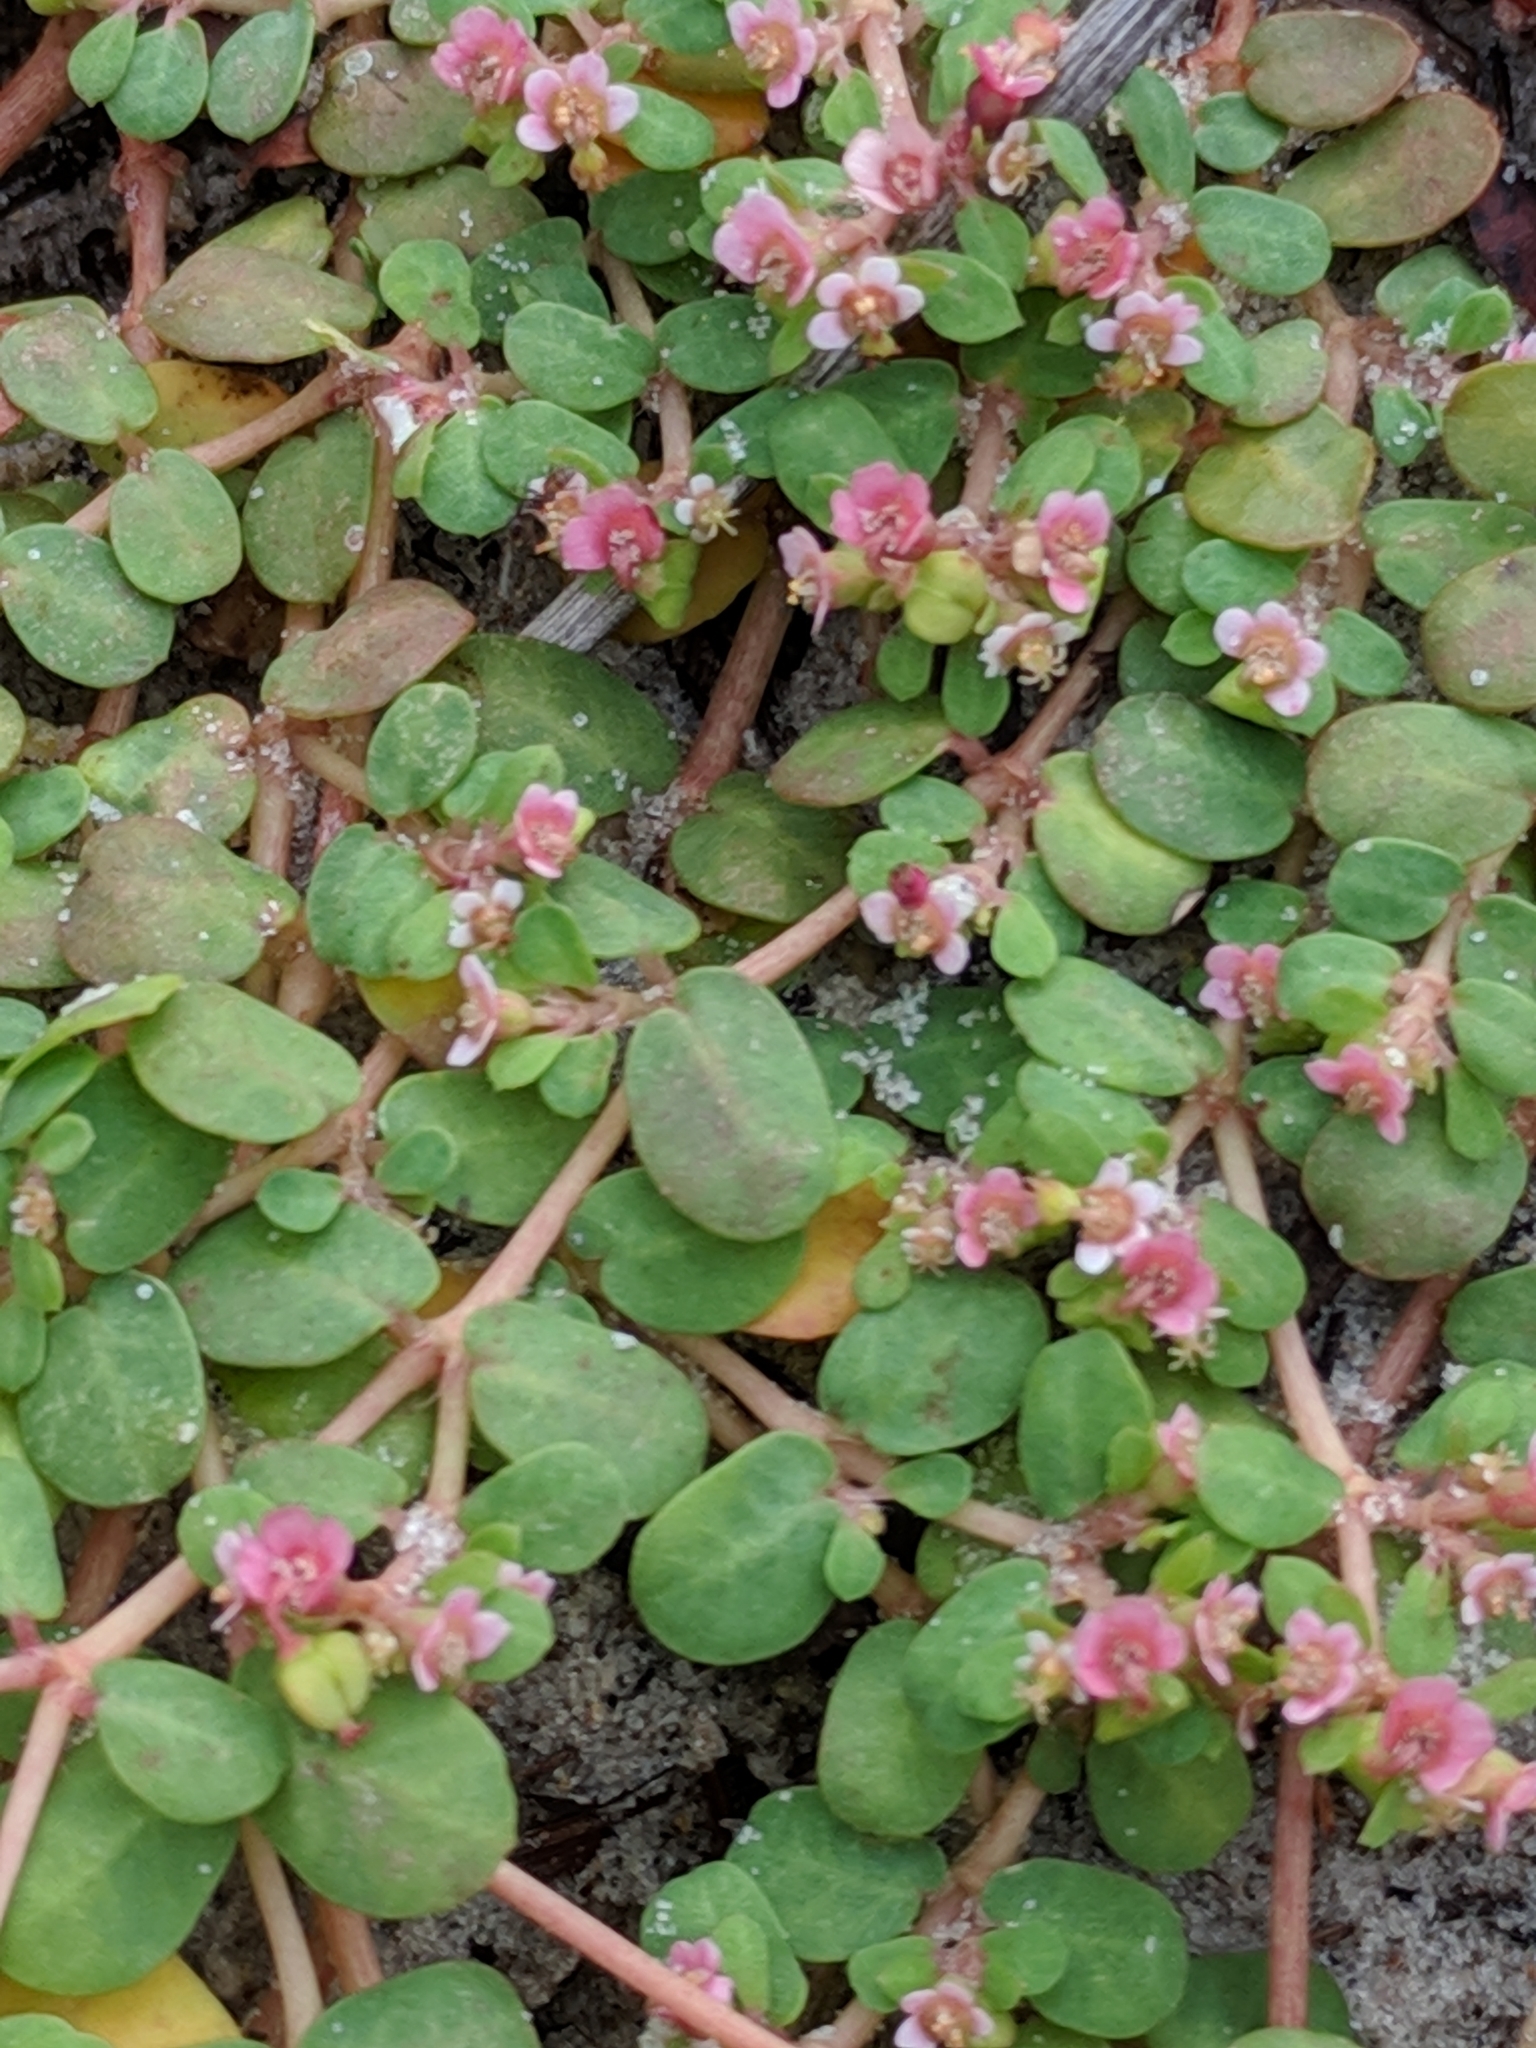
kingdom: Plantae
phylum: Tracheophyta
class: Magnoliopsida
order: Malpighiales
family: Euphorbiaceae
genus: Euphorbia
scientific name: Euphorbia cordifolia
